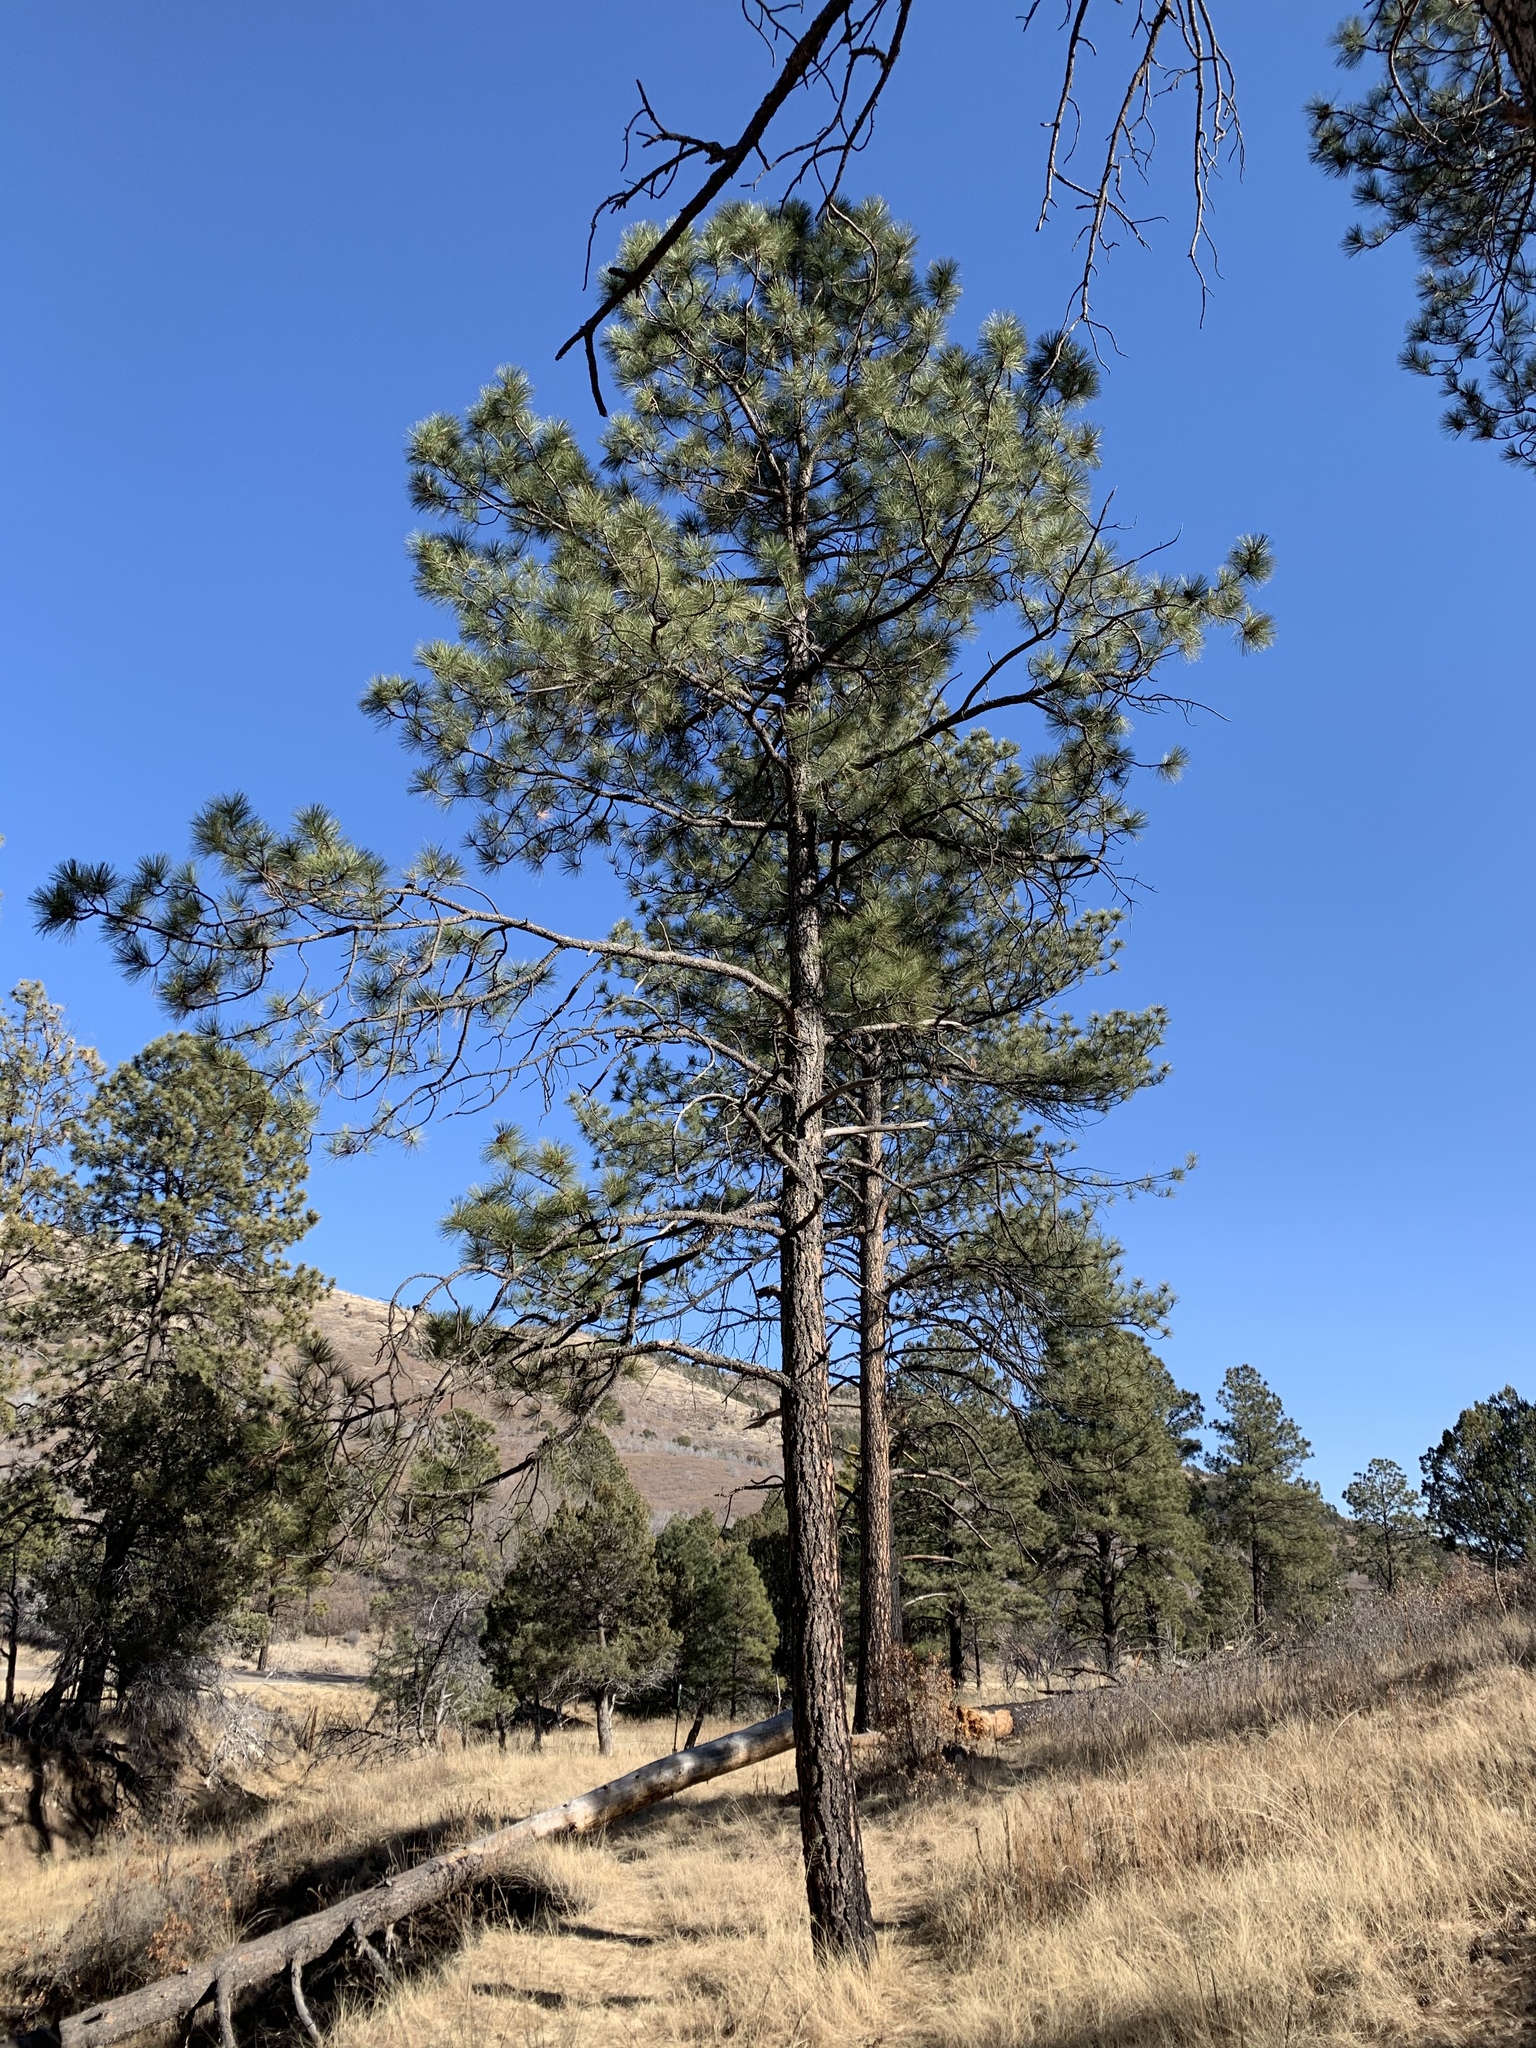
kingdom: Plantae
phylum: Tracheophyta
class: Pinopsida
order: Pinales
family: Pinaceae
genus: Pinus
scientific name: Pinus ponderosa
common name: Western yellow-pine
